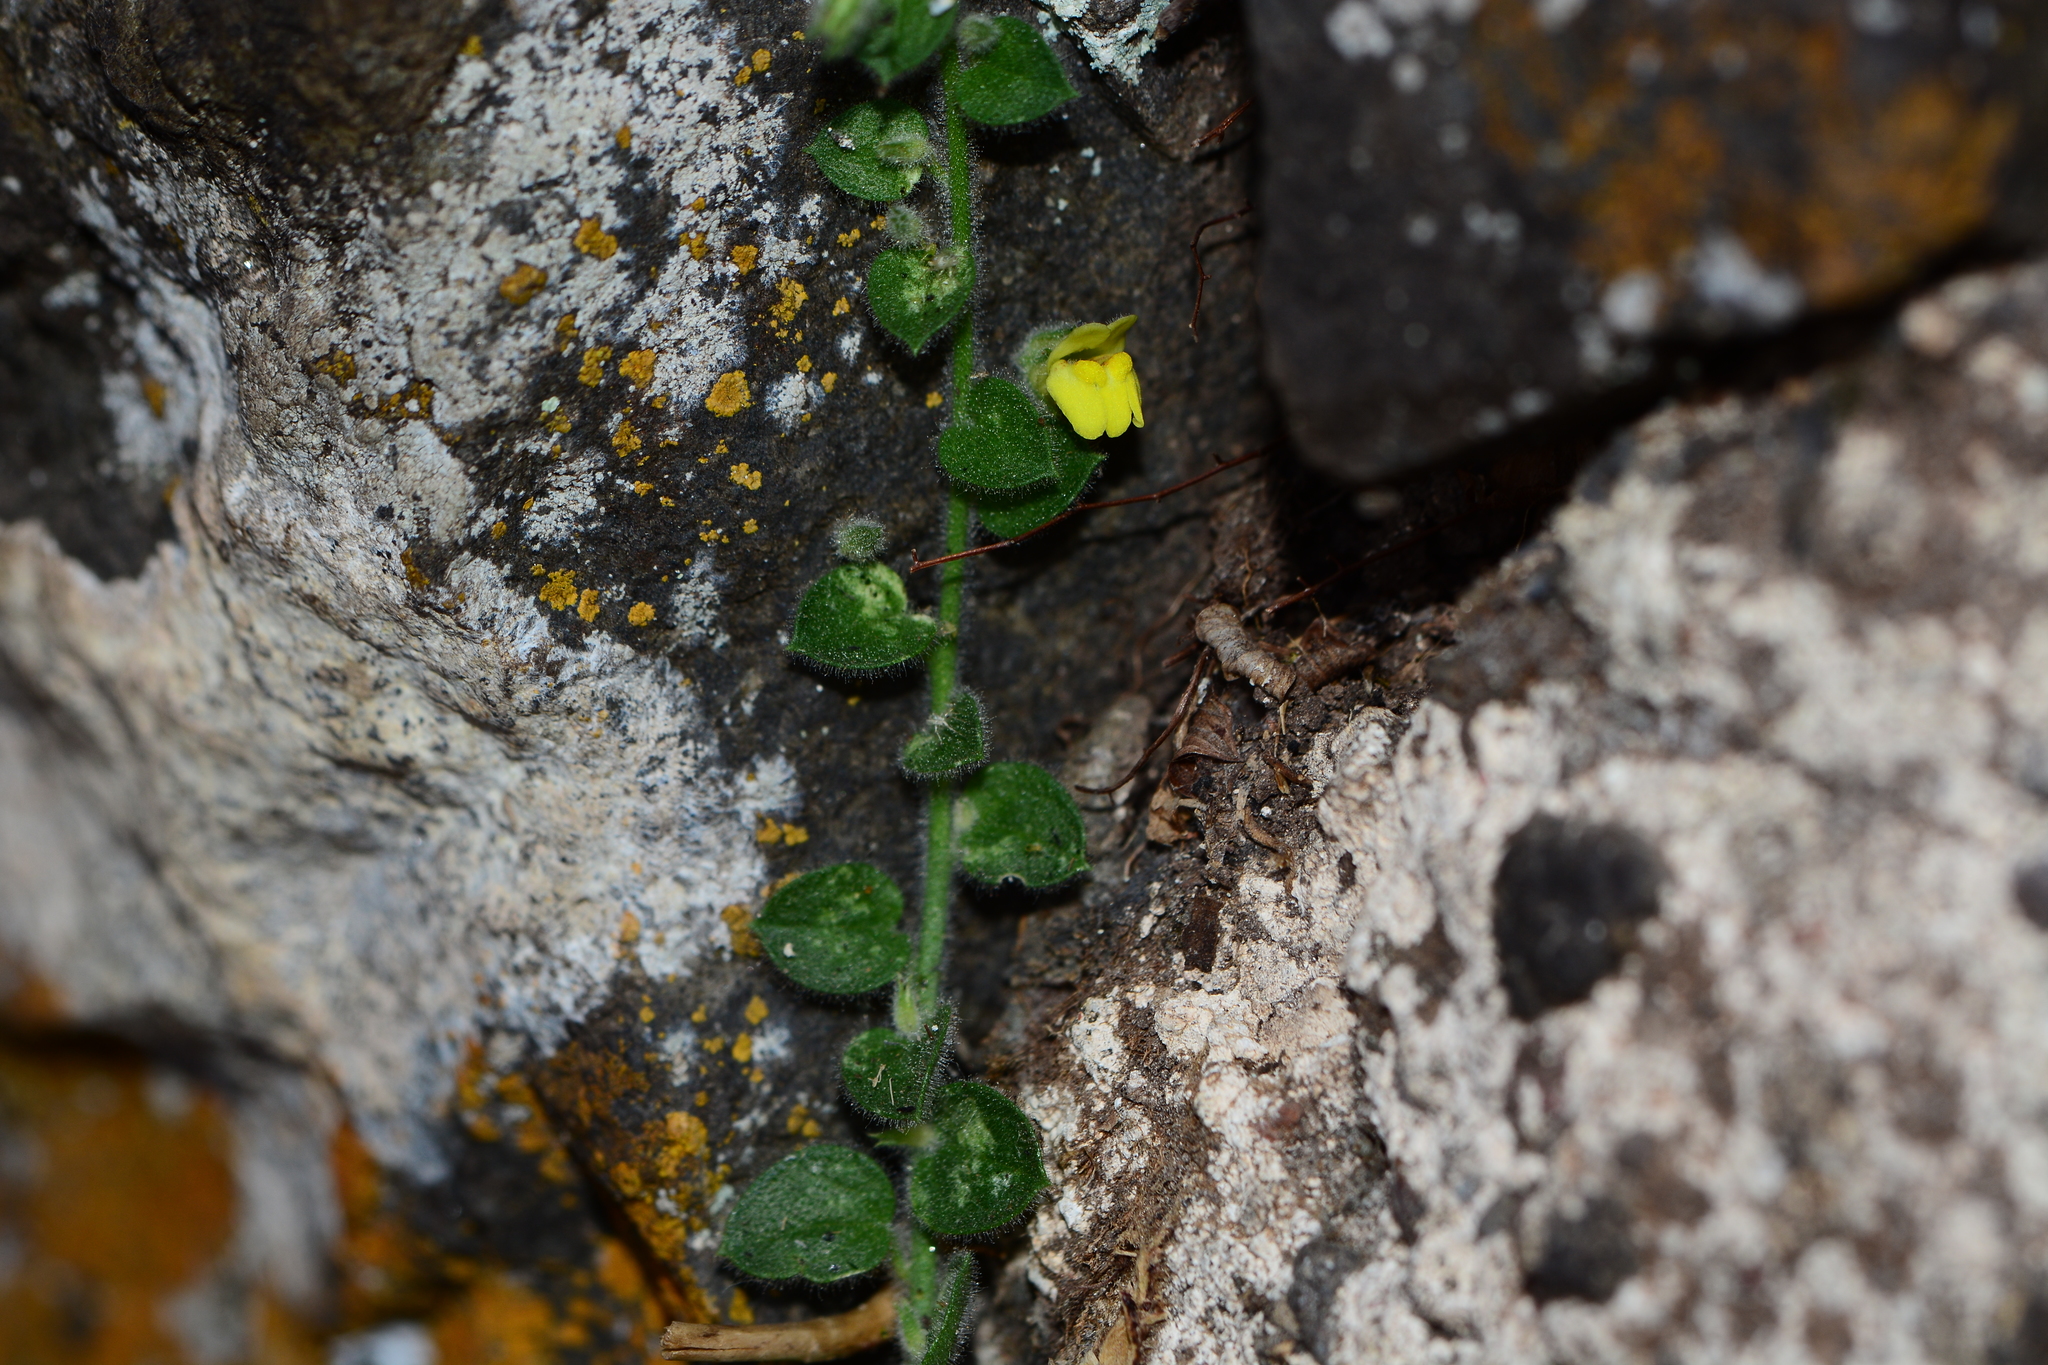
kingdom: Plantae
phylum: Tracheophyta
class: Magnoliopsida
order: Lamiales
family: Plantaginaceae
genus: Nanorrhinum
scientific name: Nanorrhinum incanum
